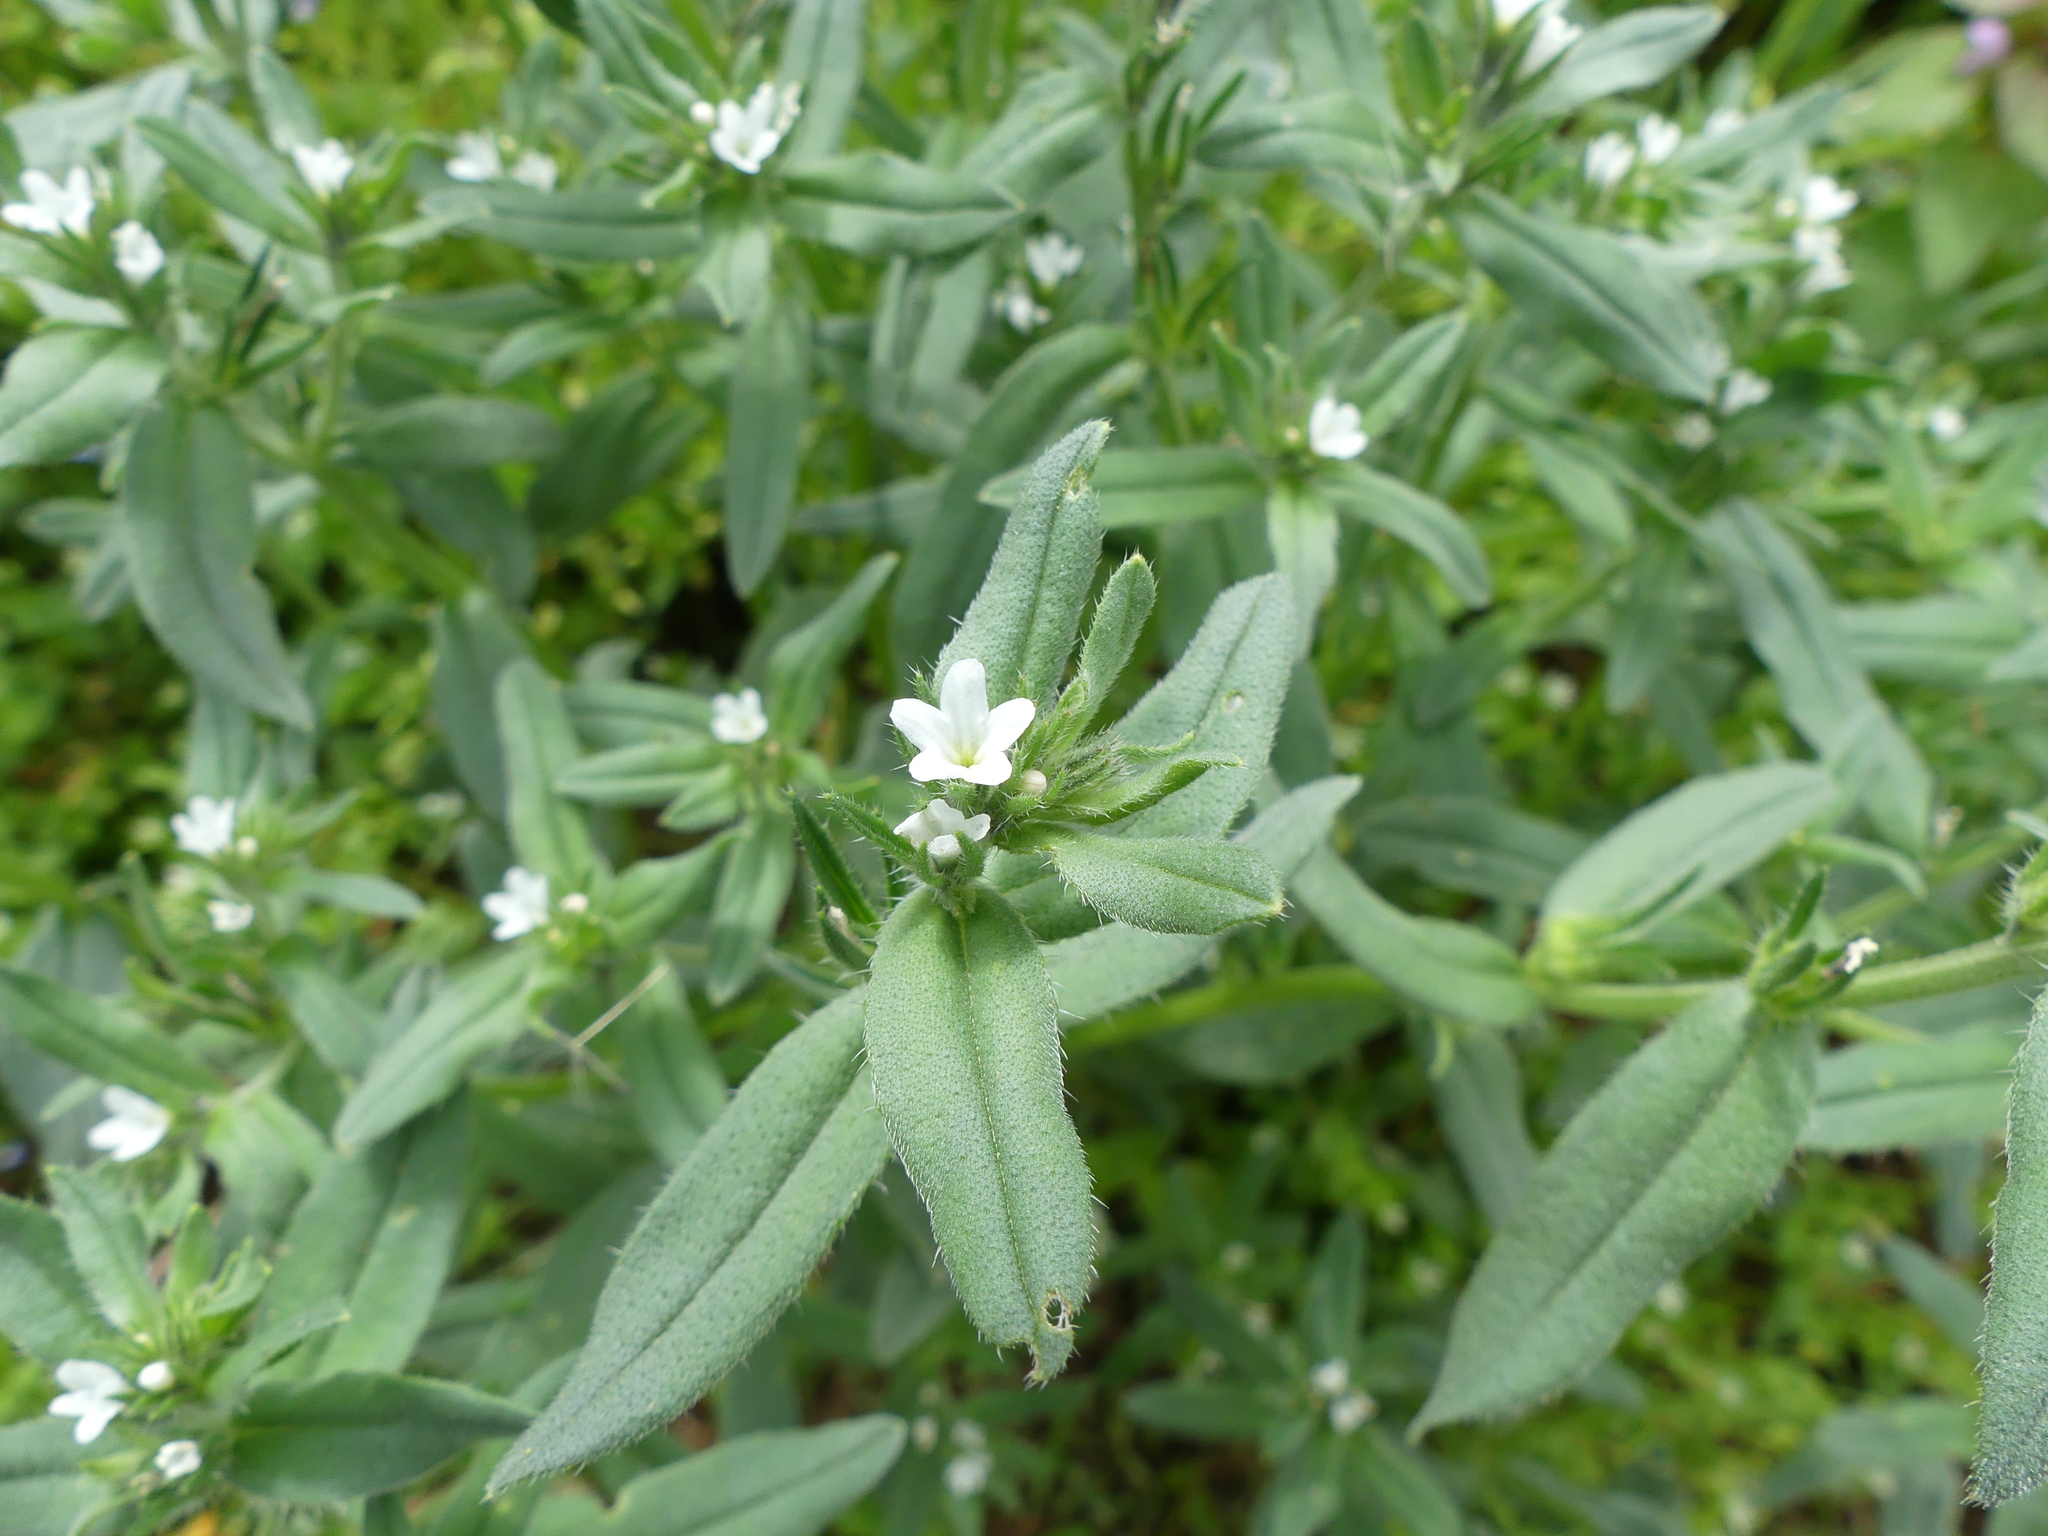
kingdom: Plantae
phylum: Tracheophyta
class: Magnoliopsida
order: Boraginales
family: Boraginaceae
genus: Buglossoides
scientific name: Buglossoides arvensis
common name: Corn gromwell
